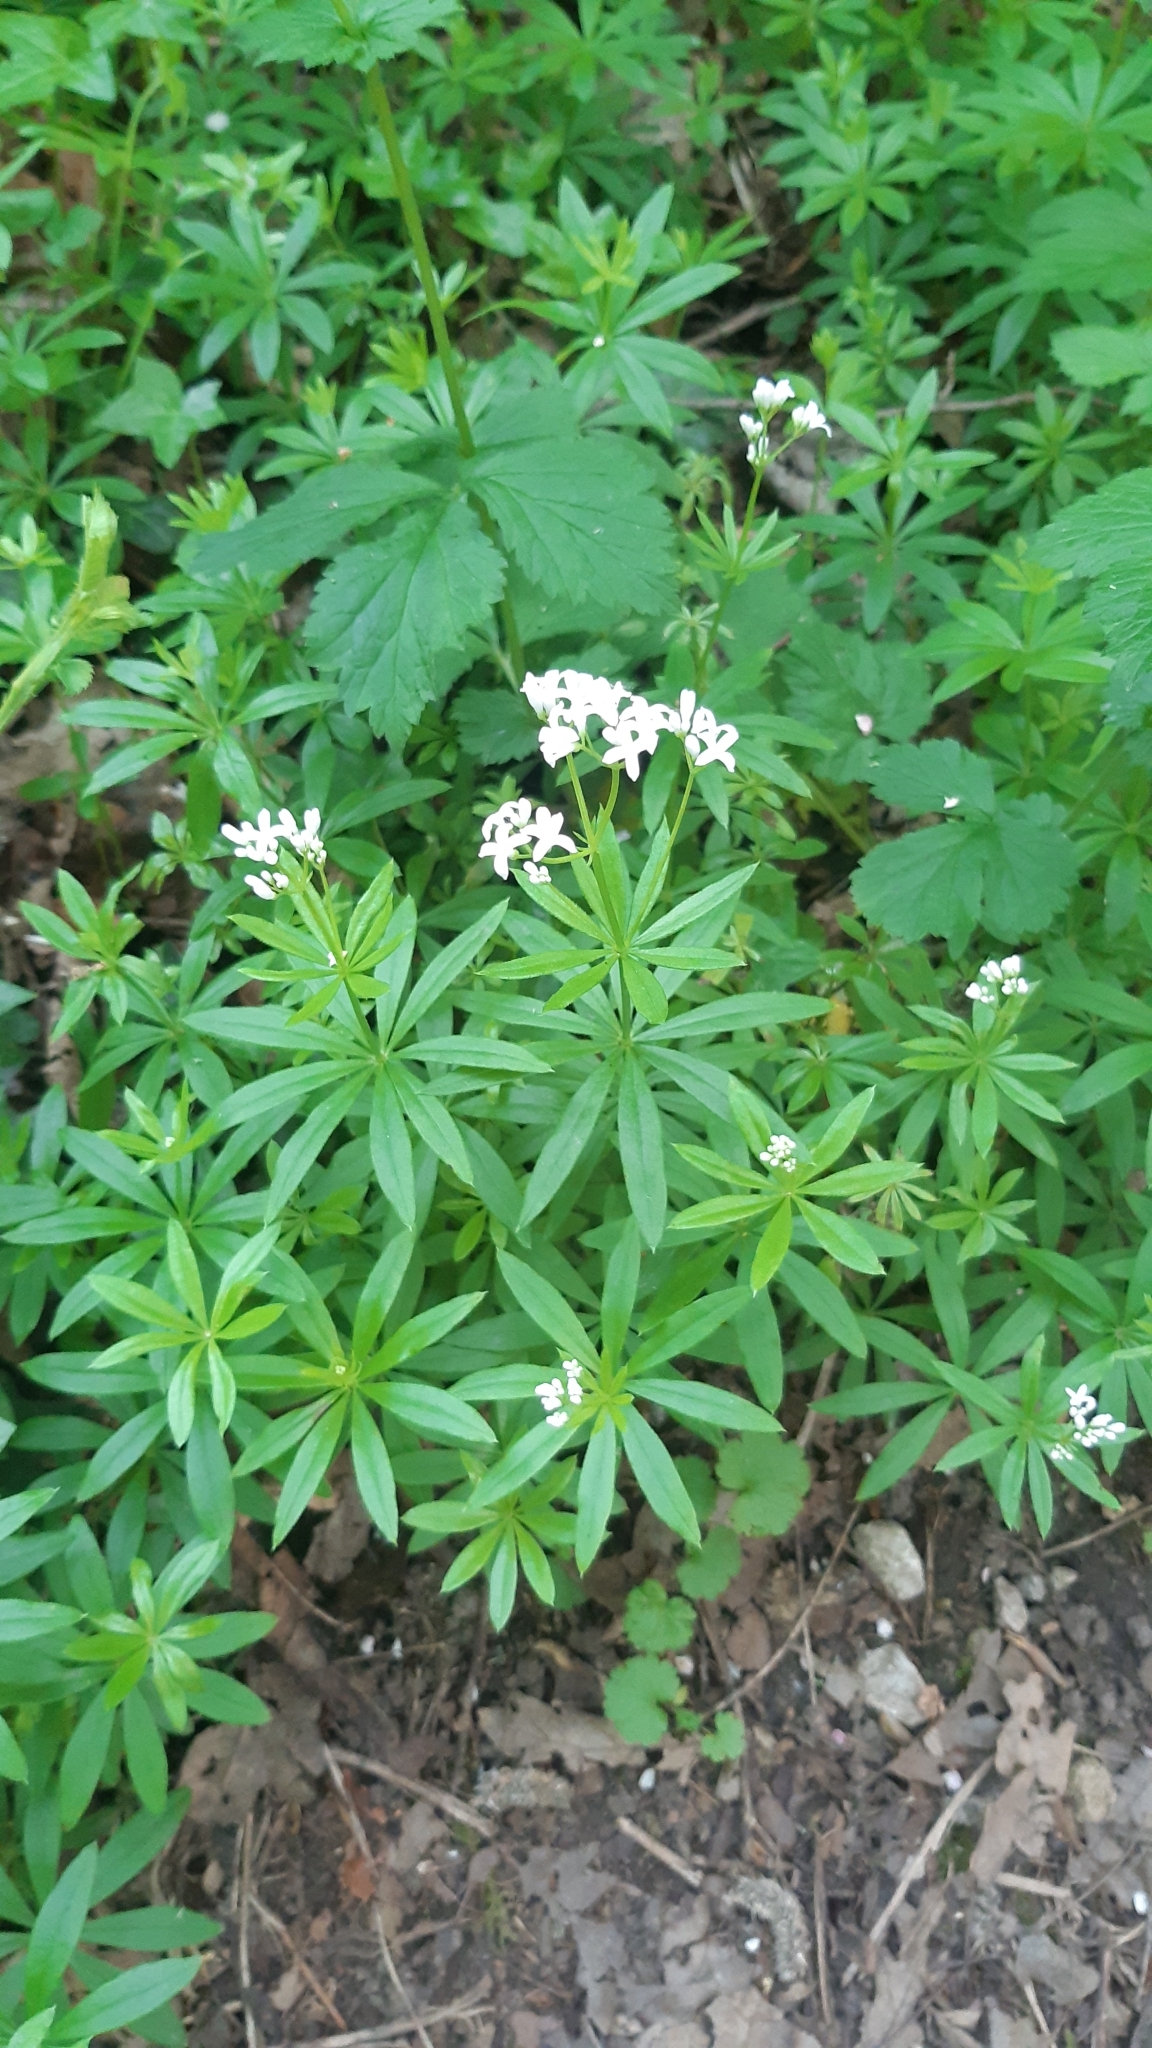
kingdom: Plantae
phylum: Tracheophyta
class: Magnoliopsida
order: Gentianales
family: Rubiaceae
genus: Galium
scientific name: Galium odoratum
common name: Sweet woodruff
